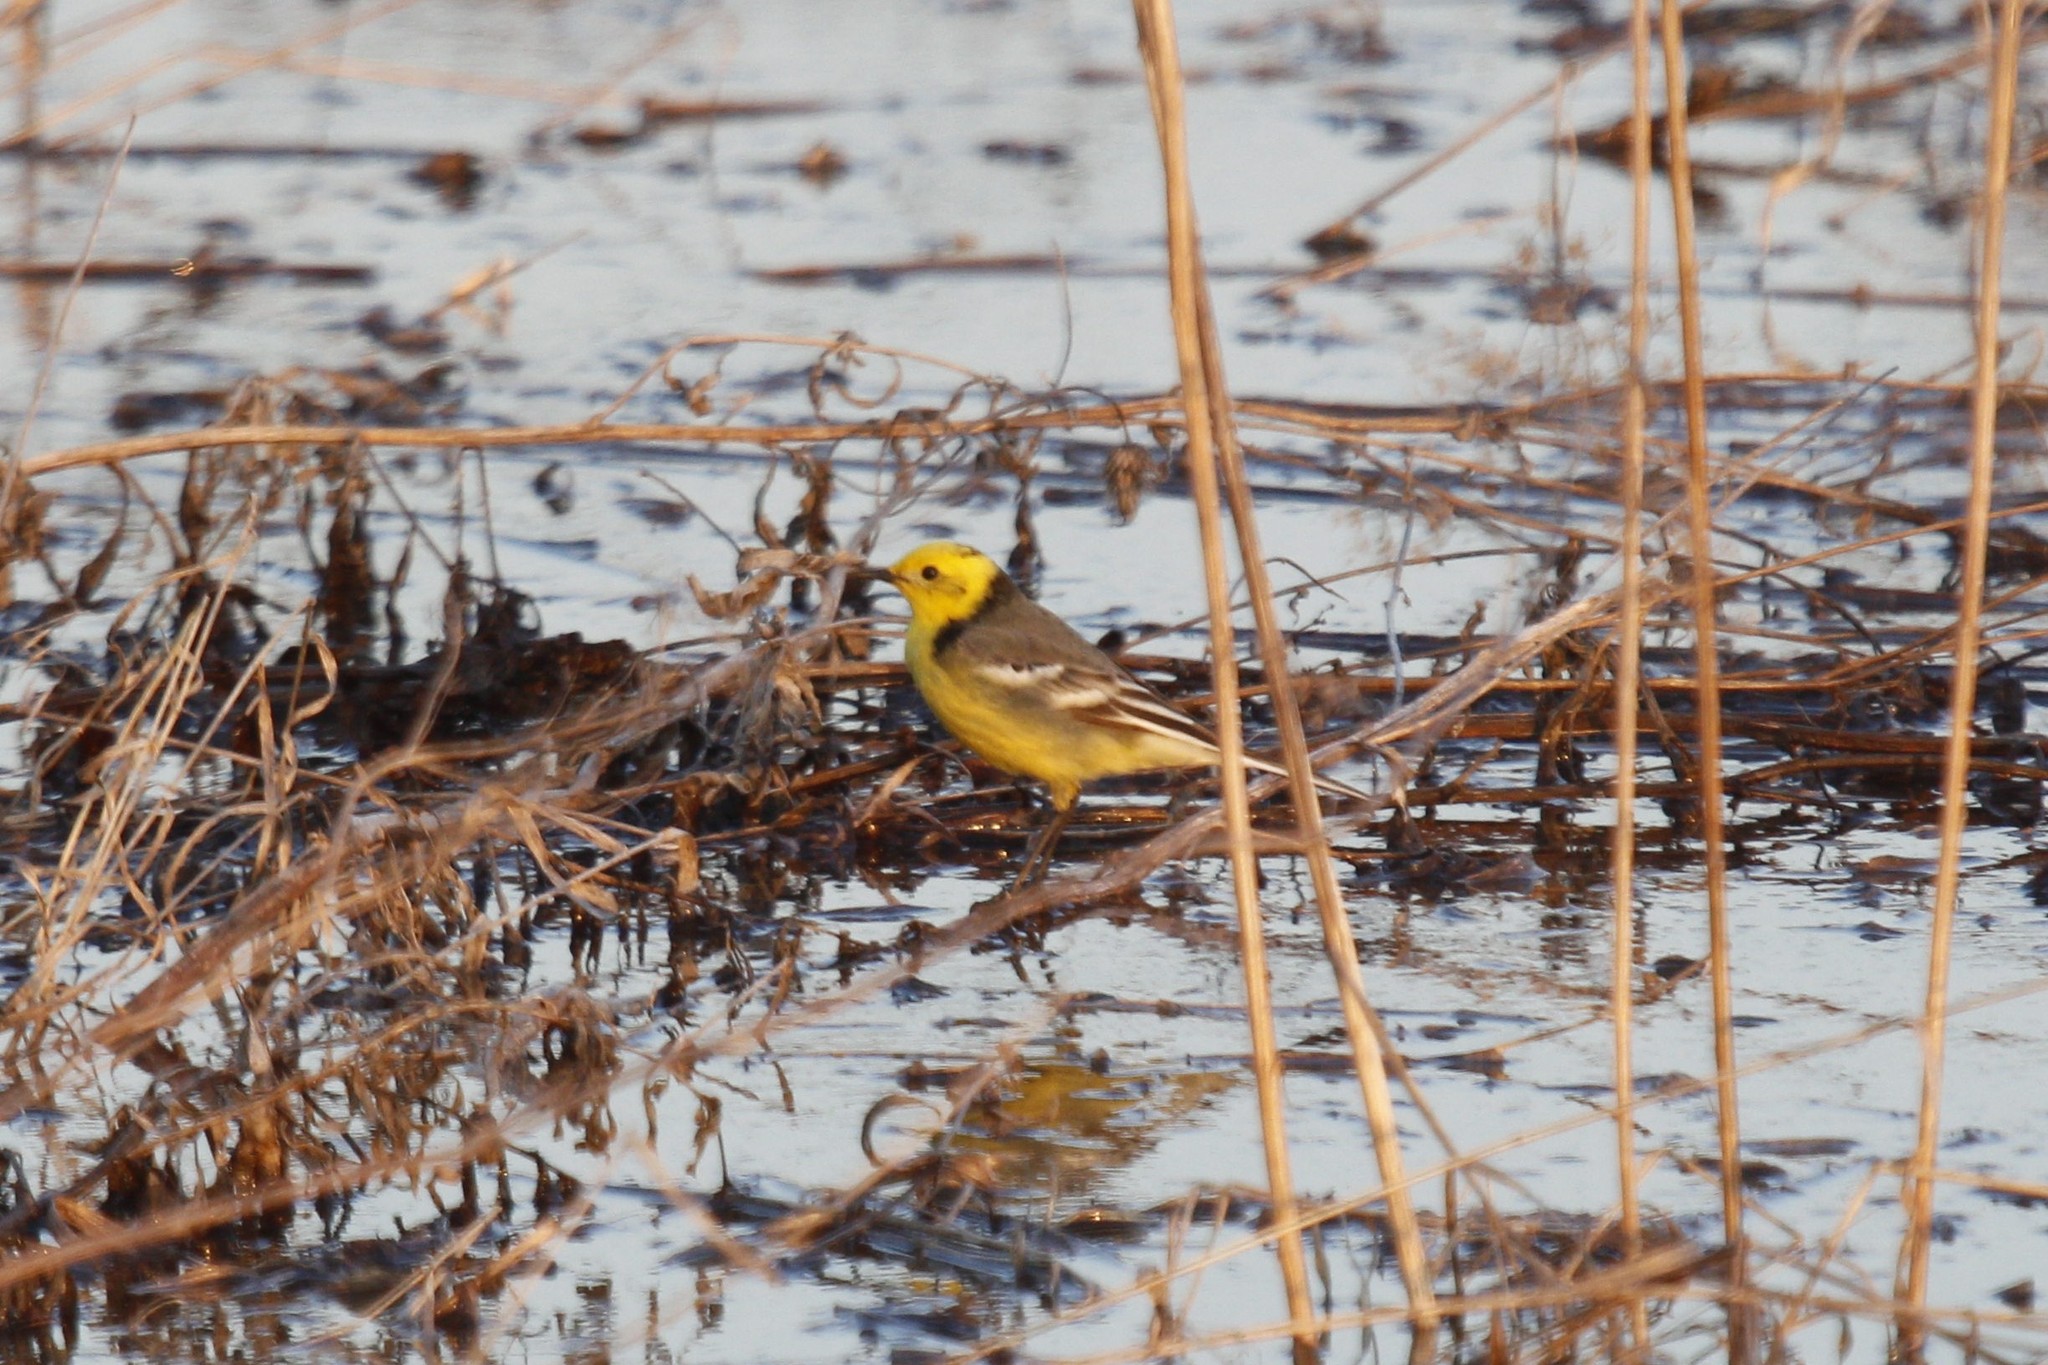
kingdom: Animalia
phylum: Chordata
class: Aves
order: Passeriformes
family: Motacillidae
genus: Motacilla
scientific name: Motacilla citreola
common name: Citrine wagtail
